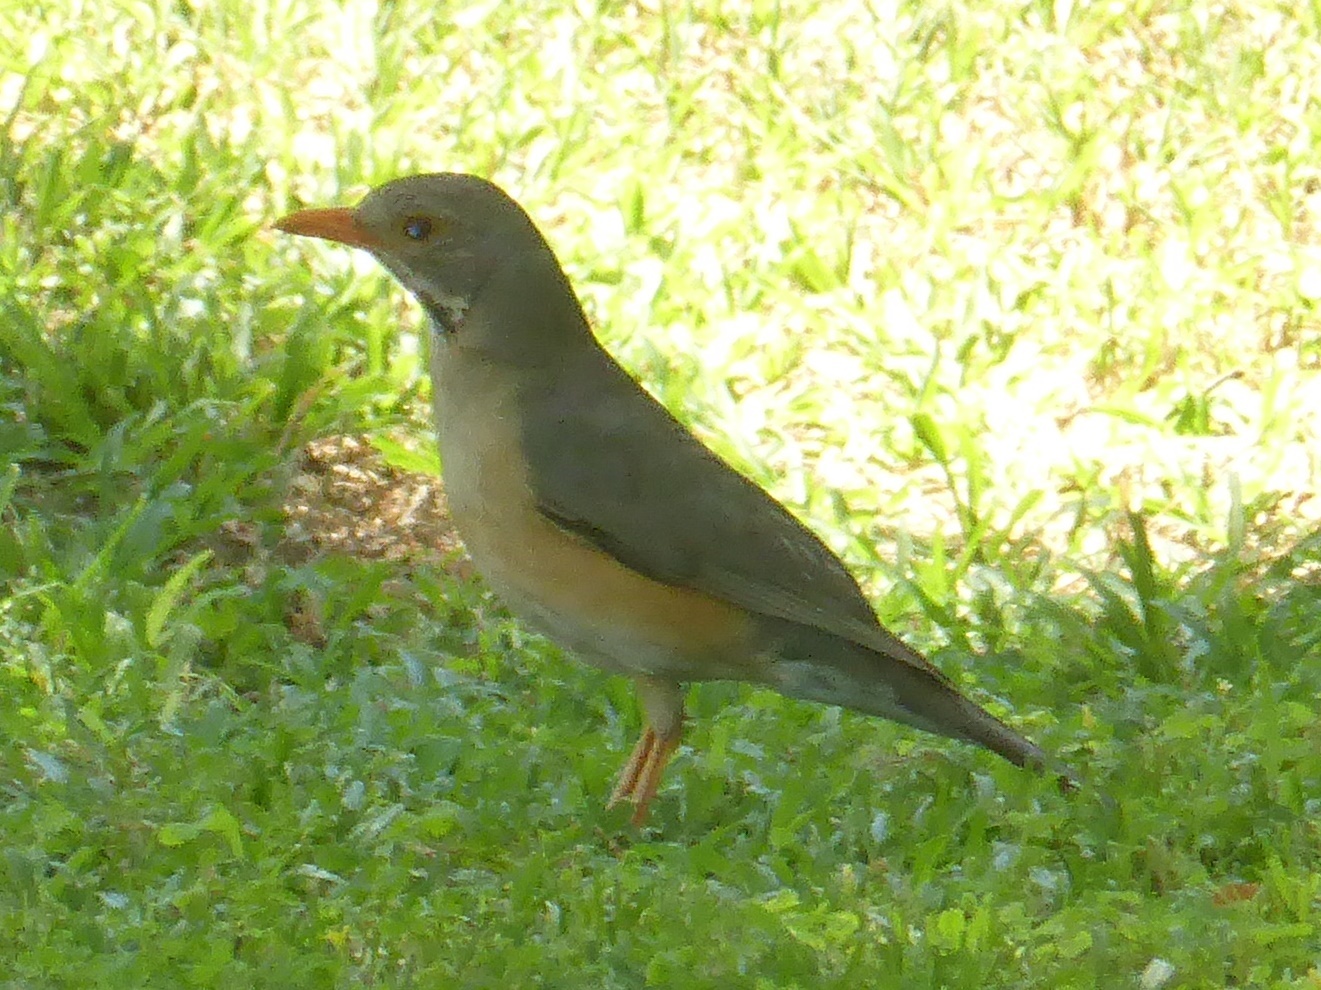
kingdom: Animalia
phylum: Chordata
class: Aves
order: Passeriformes
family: Turdidae
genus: Turdus
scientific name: Turdus libonyana
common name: Kurrichane thrush
